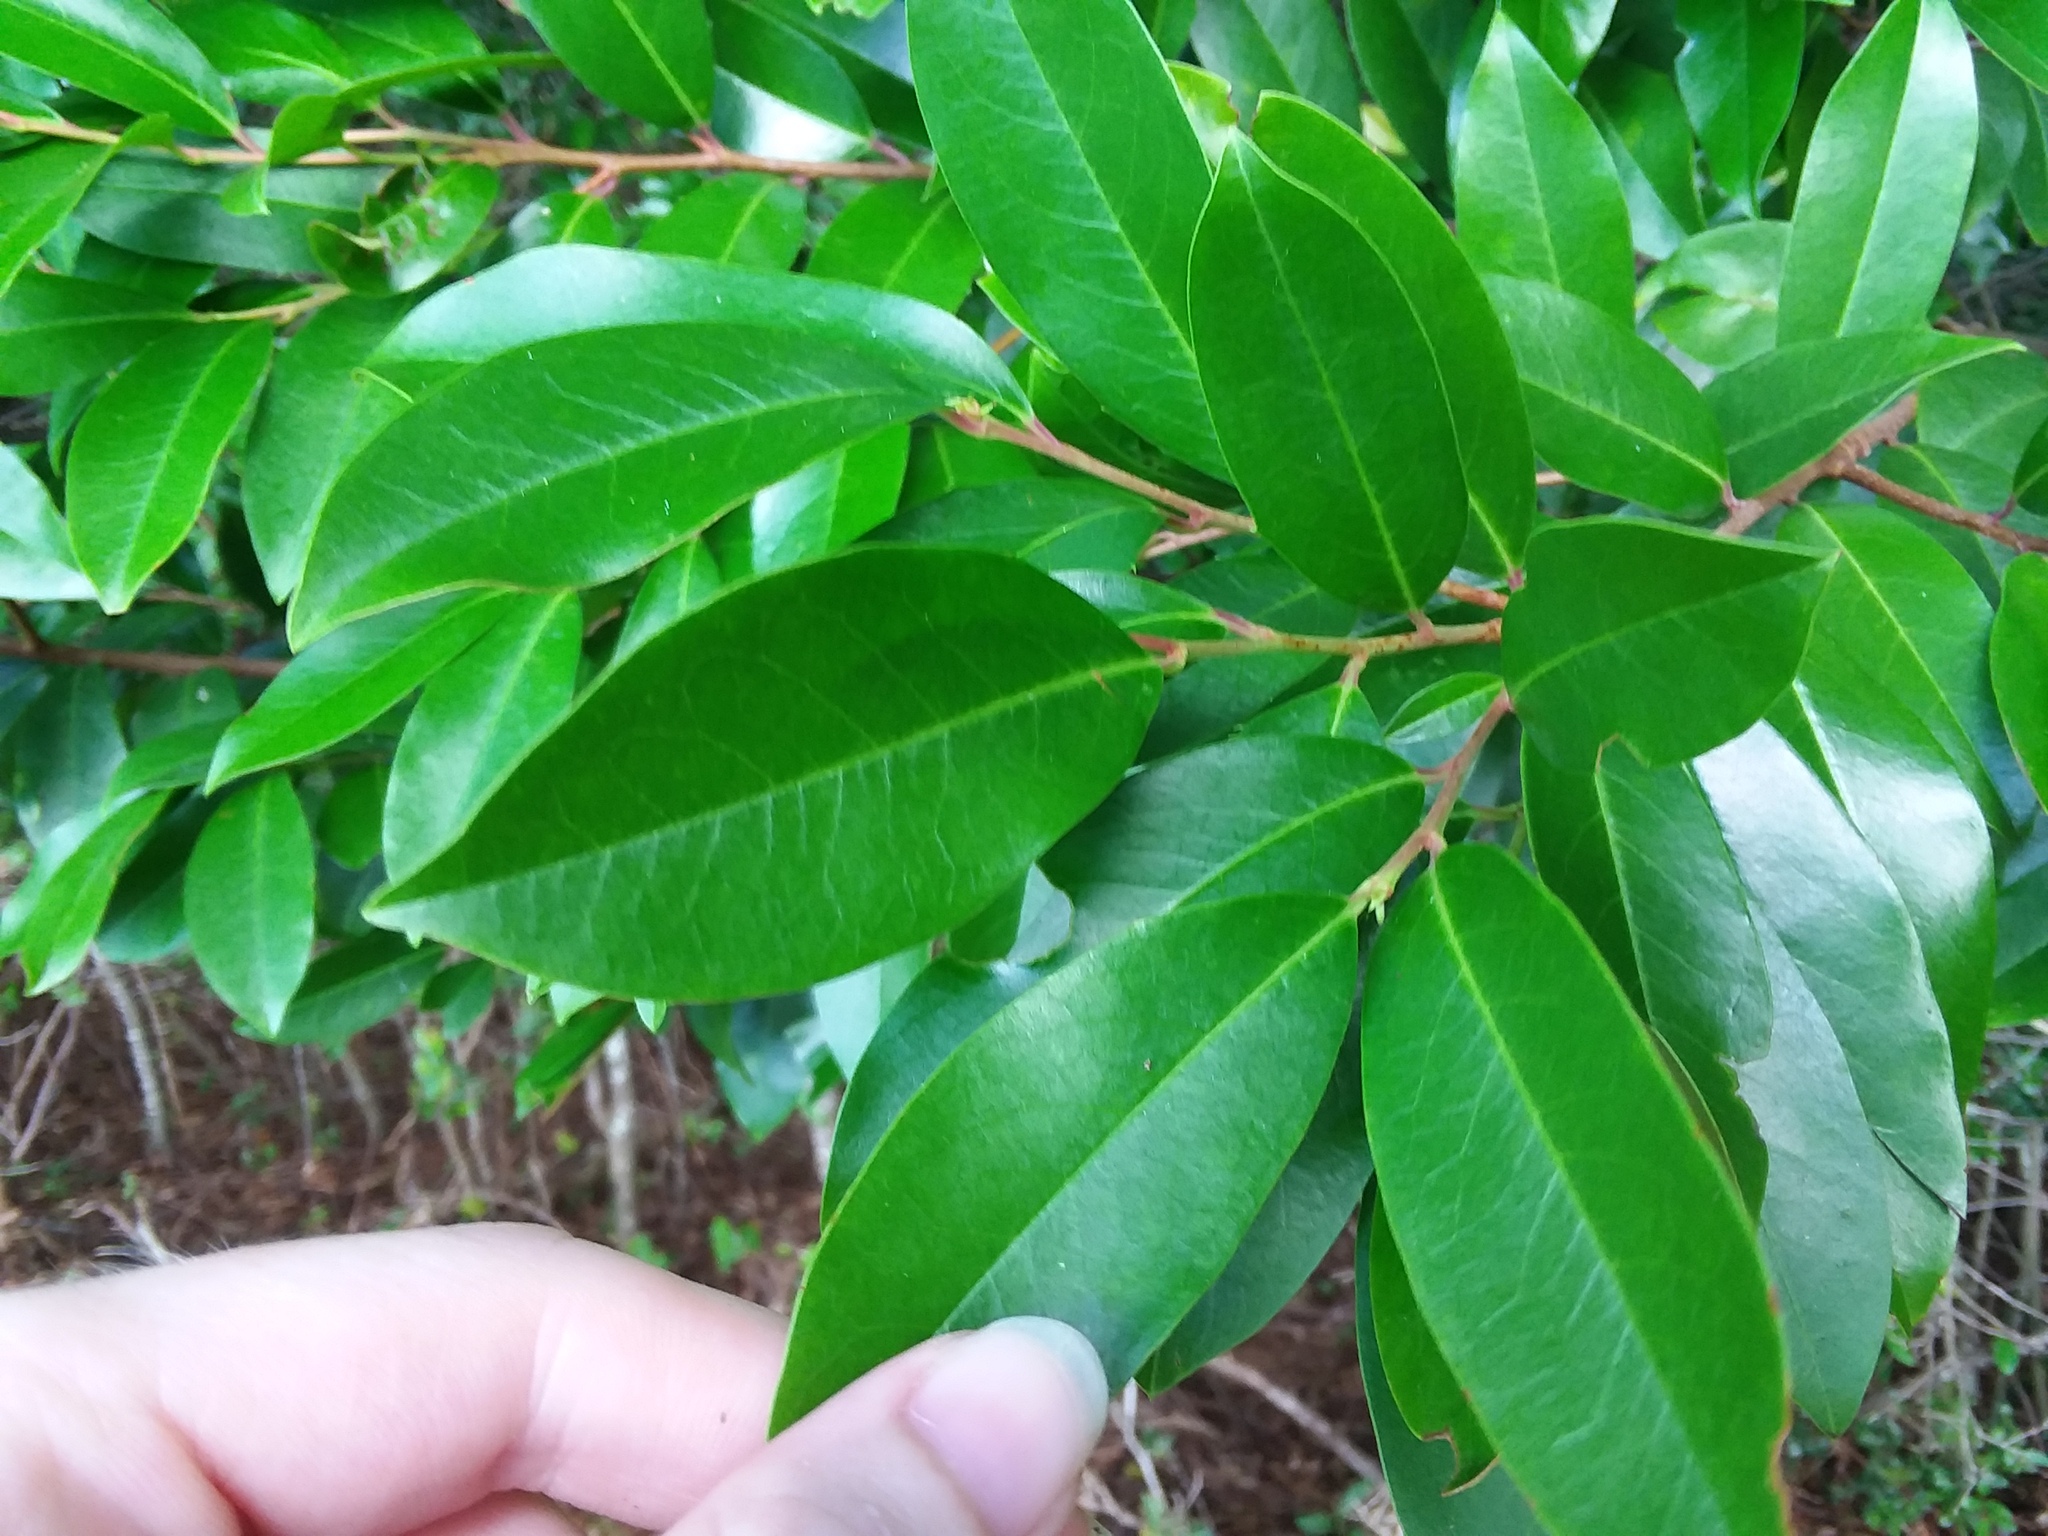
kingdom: Plantae
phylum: Tracheophyta
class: Magnoliopsida
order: Rosales
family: Rosaceae
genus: Prunus
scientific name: Prunus caroliniana
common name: Carolina laurel cherry
